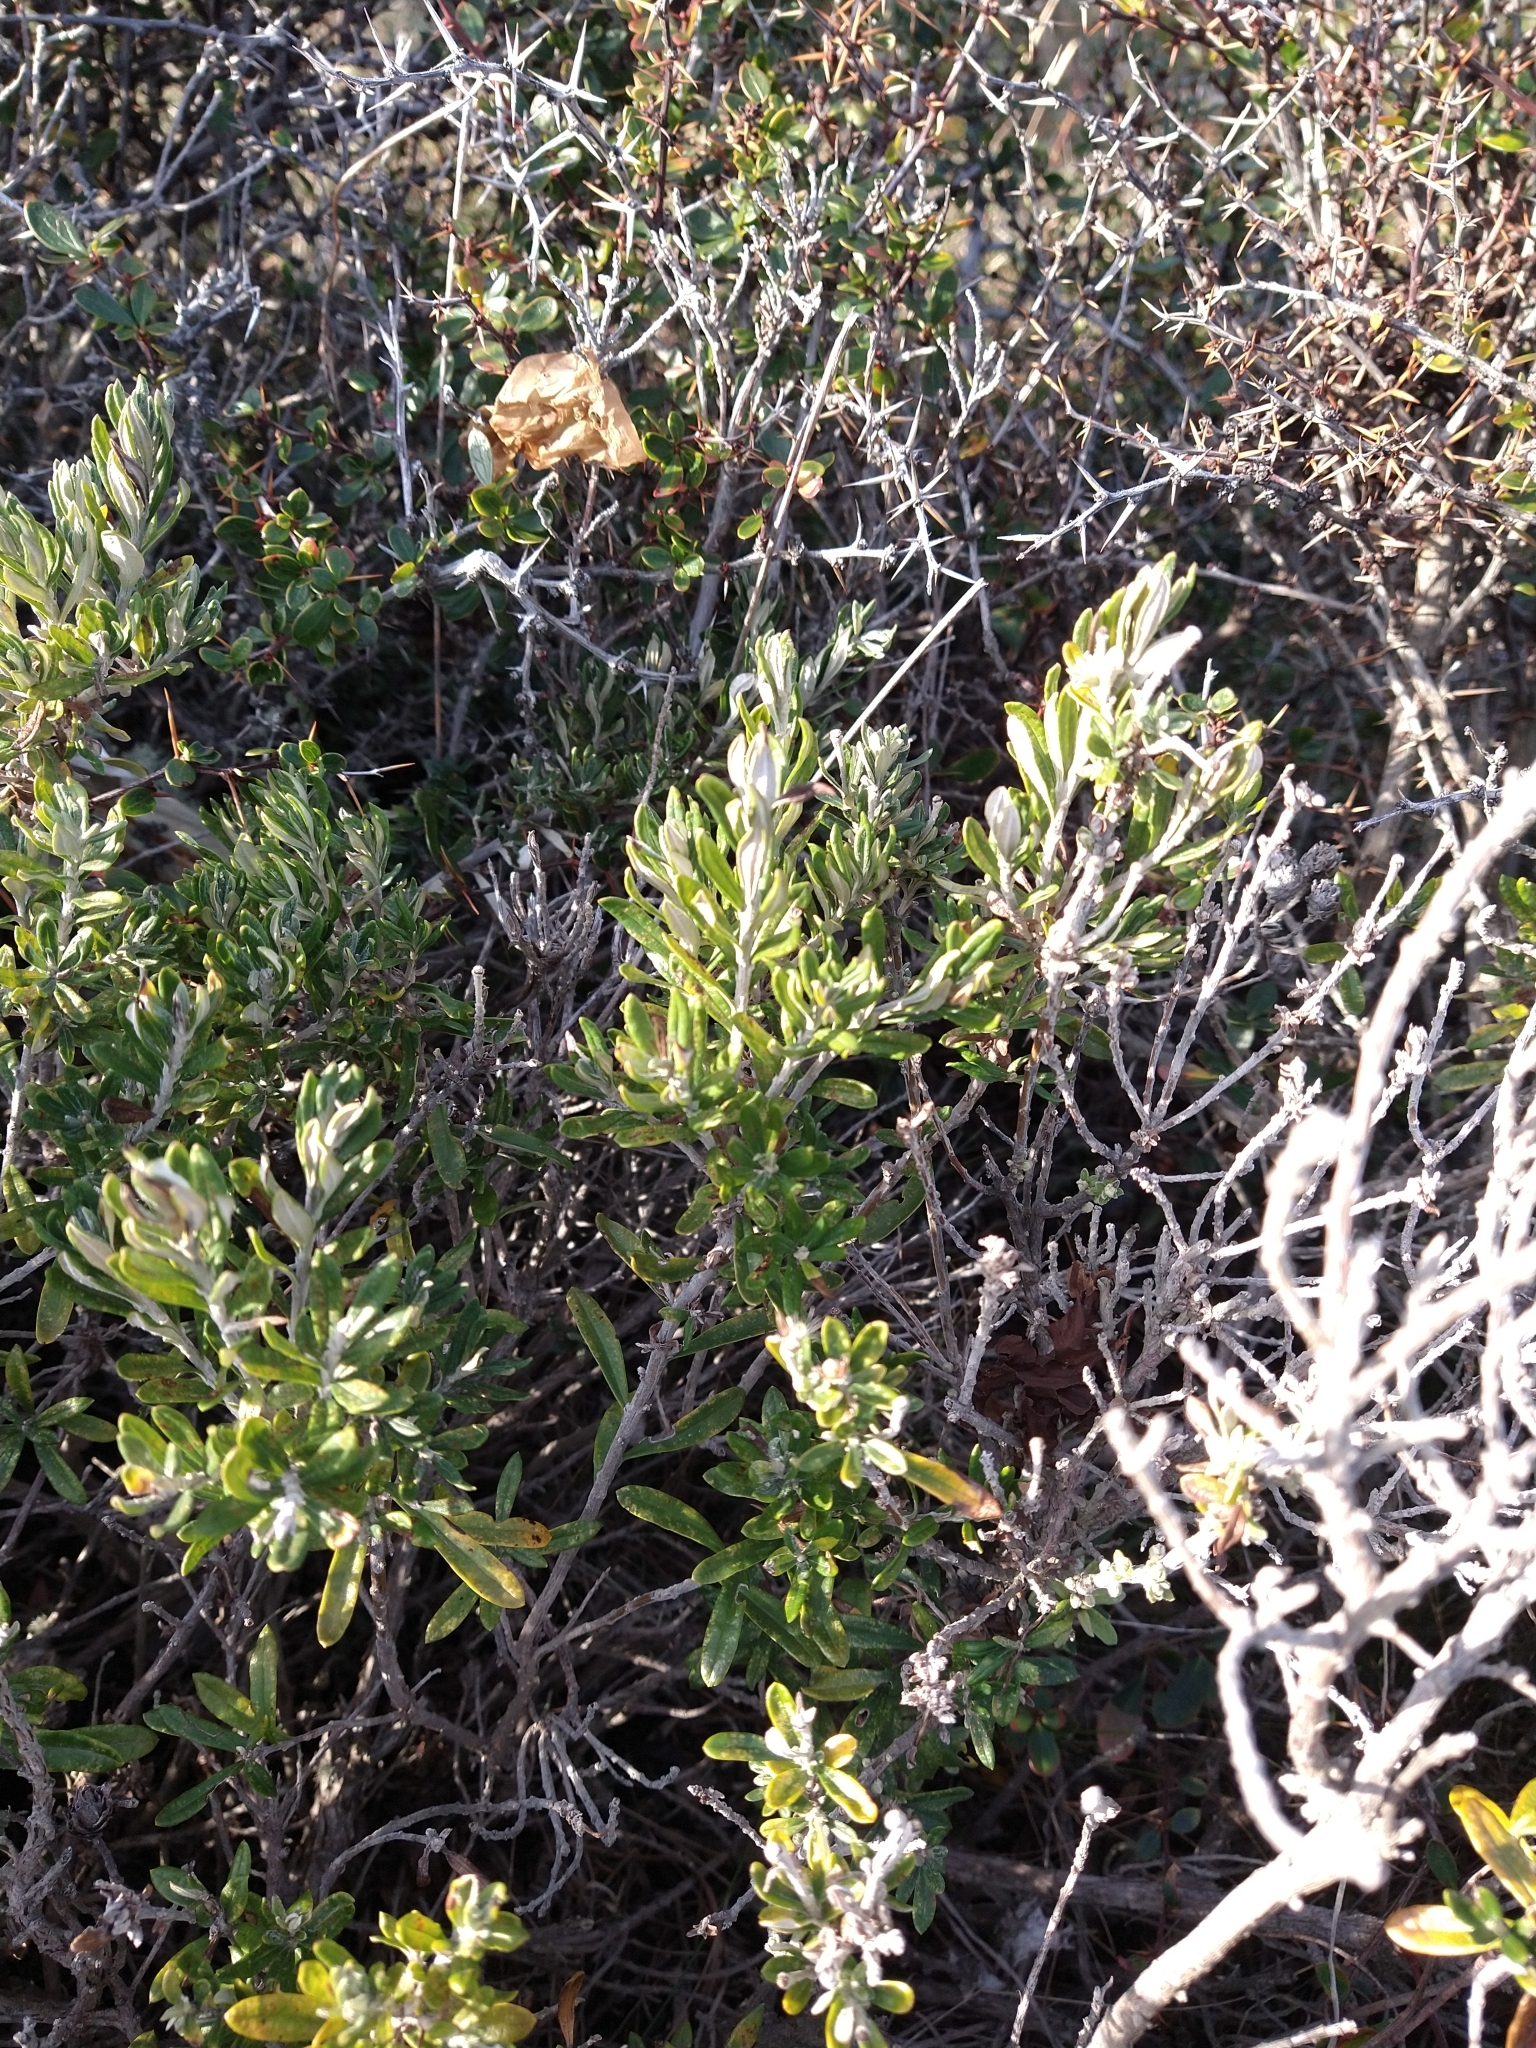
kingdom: Plantae
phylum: Tracheophyta
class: Magnoliopsida
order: Asterales
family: Asteraceae
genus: Chiliotrichum
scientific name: Chiliotrichum diffusum
